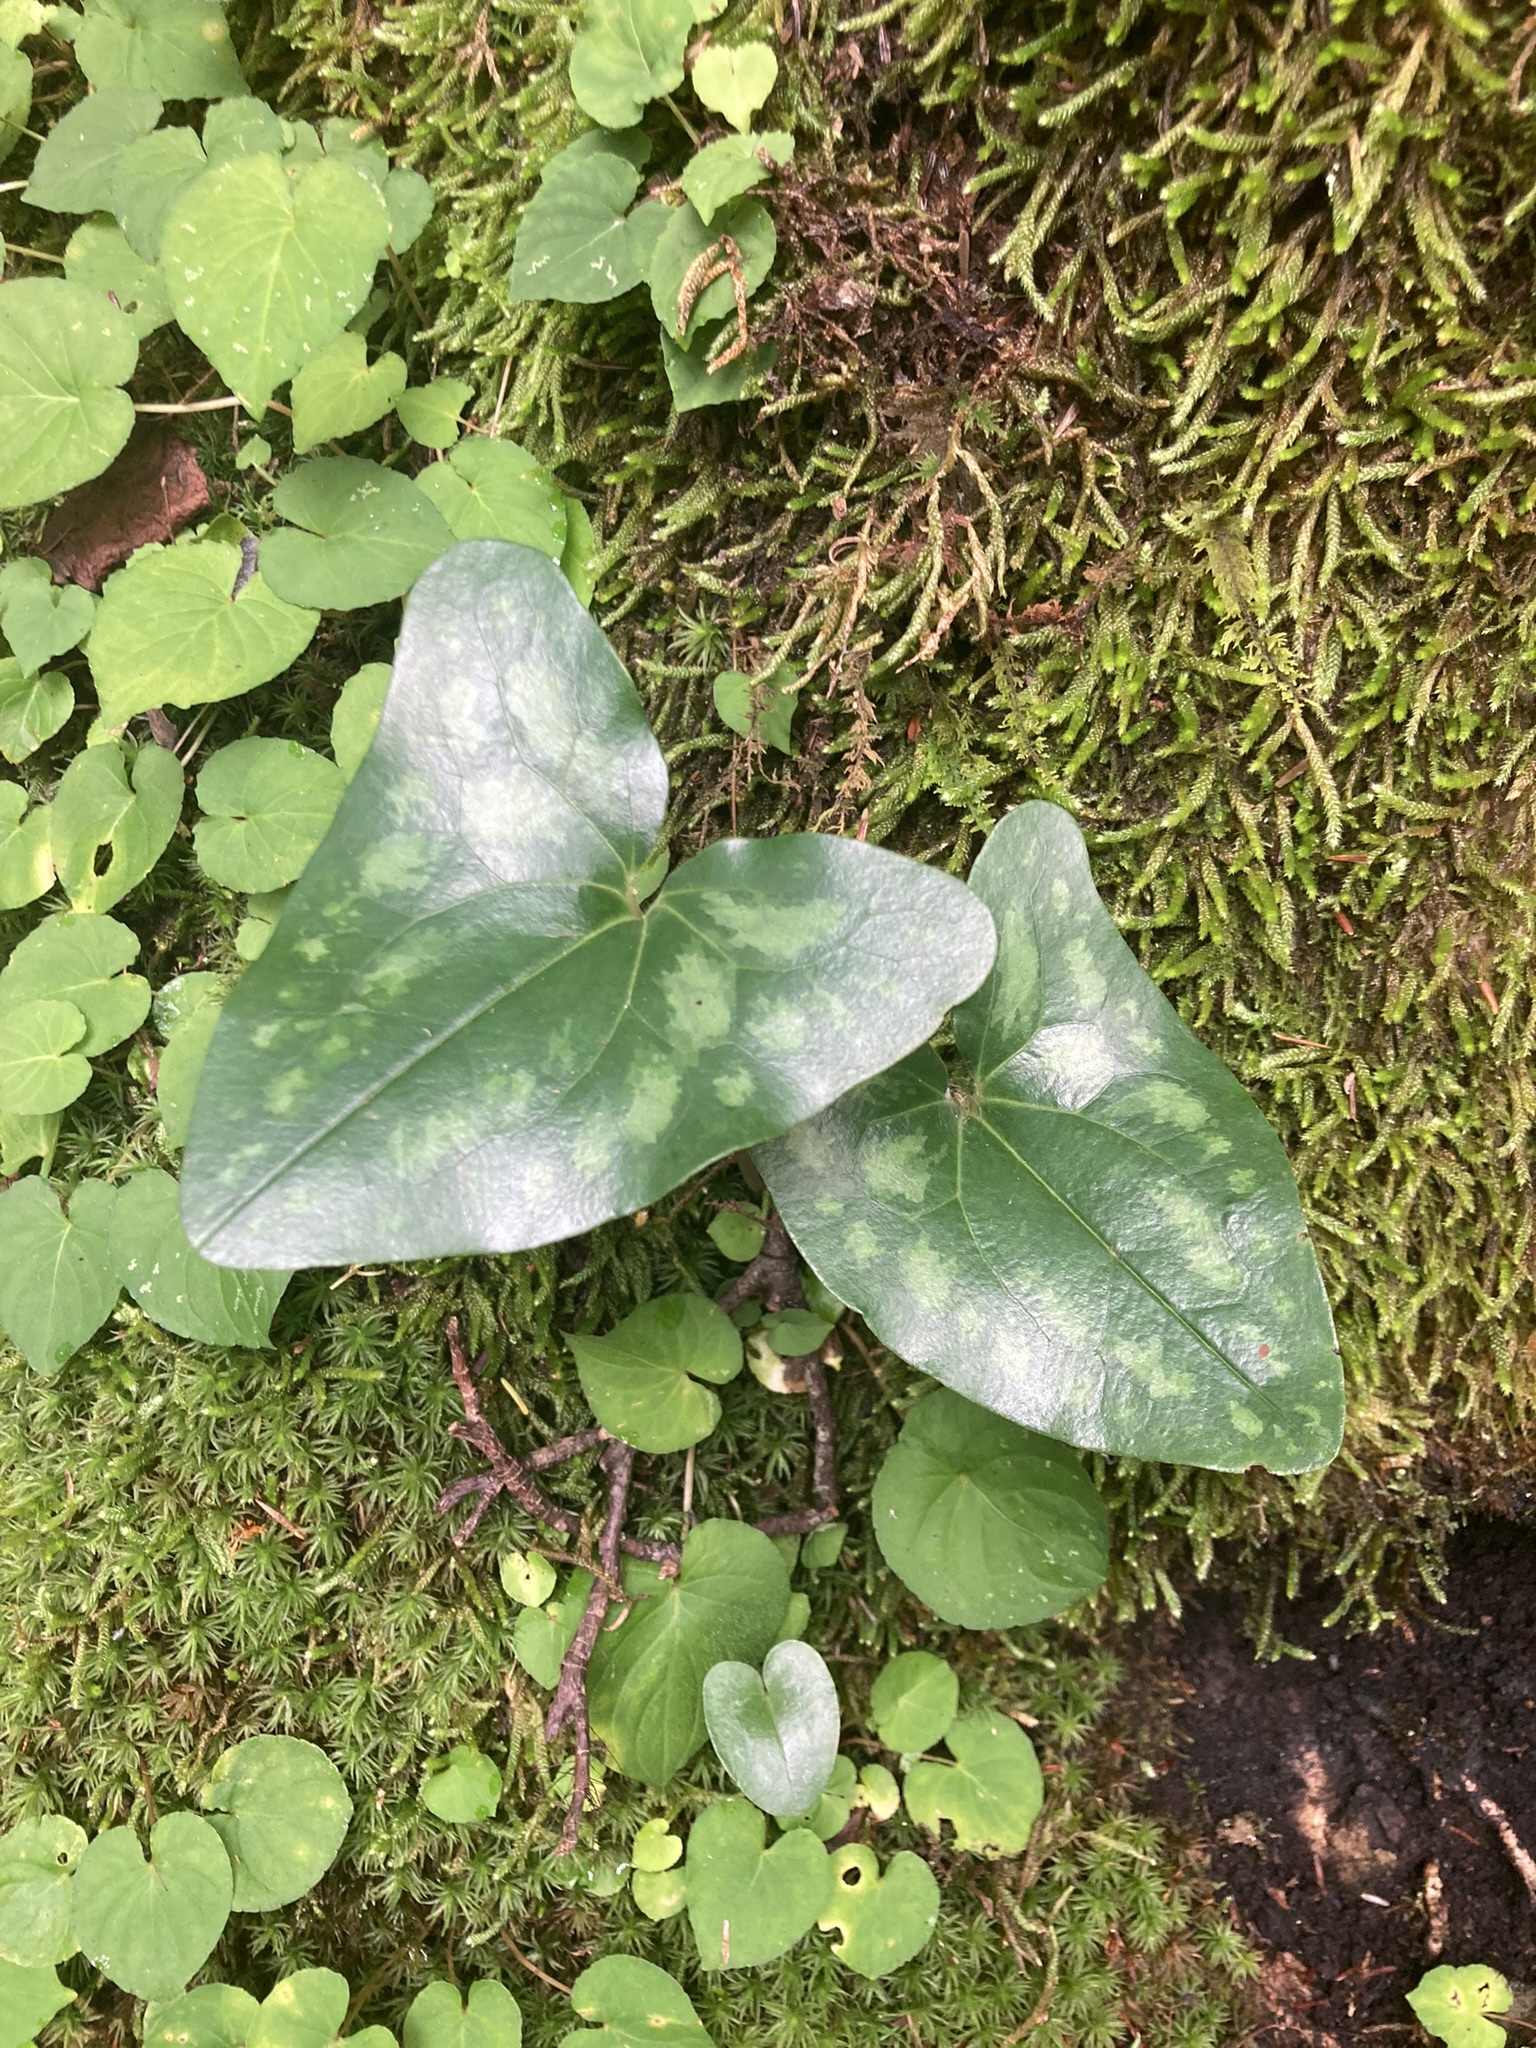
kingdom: Plantae
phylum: Tracheophyta
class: Magnoliopsida
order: Piperales
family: Aristolochiaceae
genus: Hexastylis
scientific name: Hexastylis arifolia
